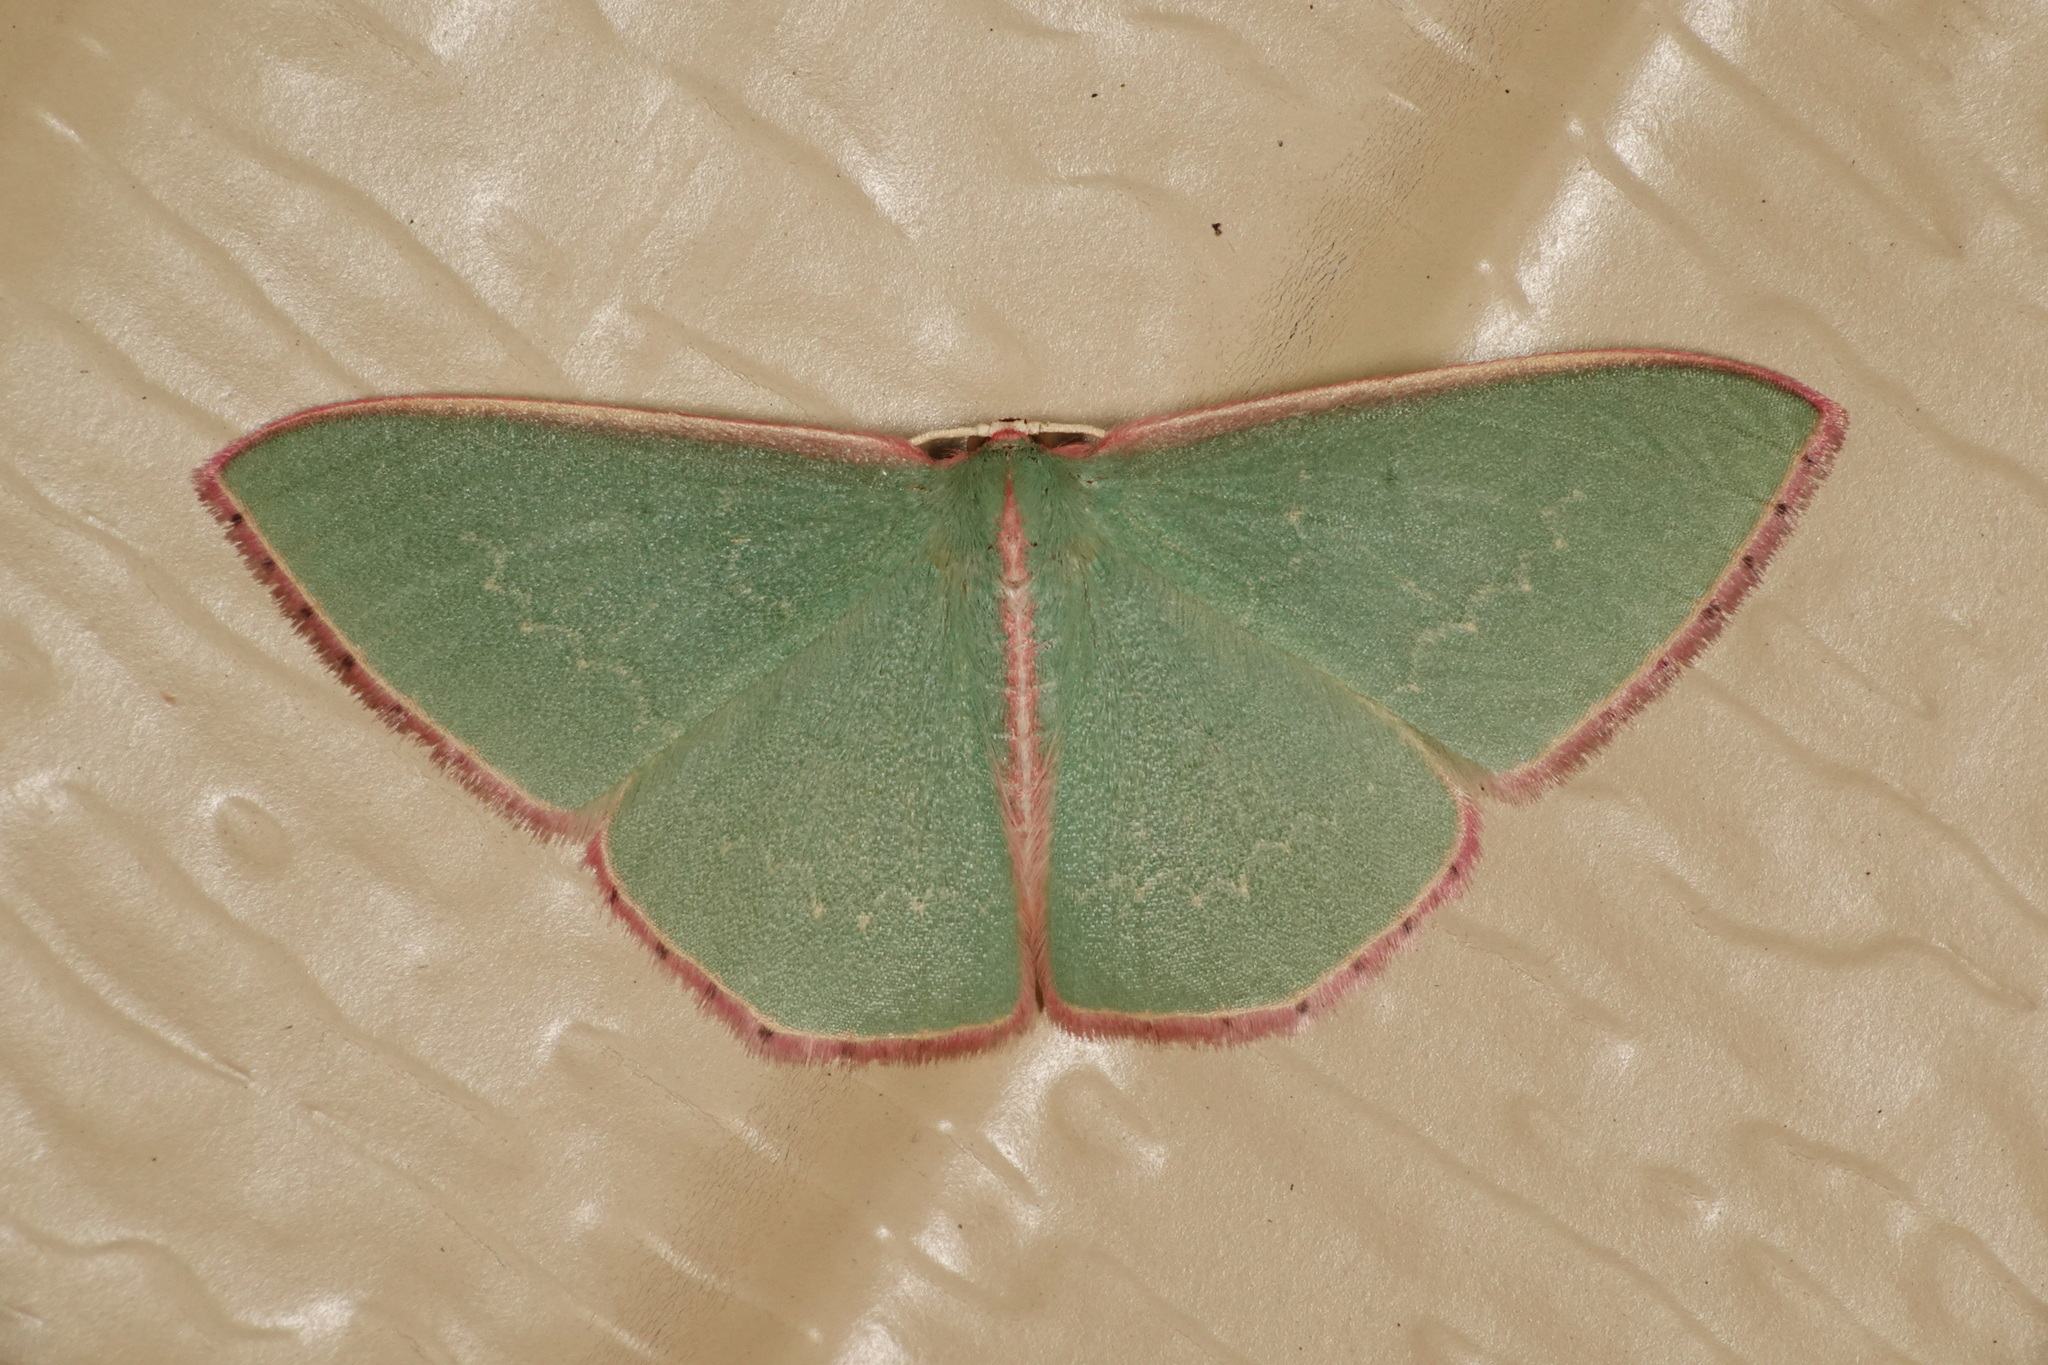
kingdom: Animalia
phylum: Arthropoda
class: Insecta
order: Lepidoptera
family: Geometridae
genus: Chlorocoma
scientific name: Chlorocoma vertumnaria
